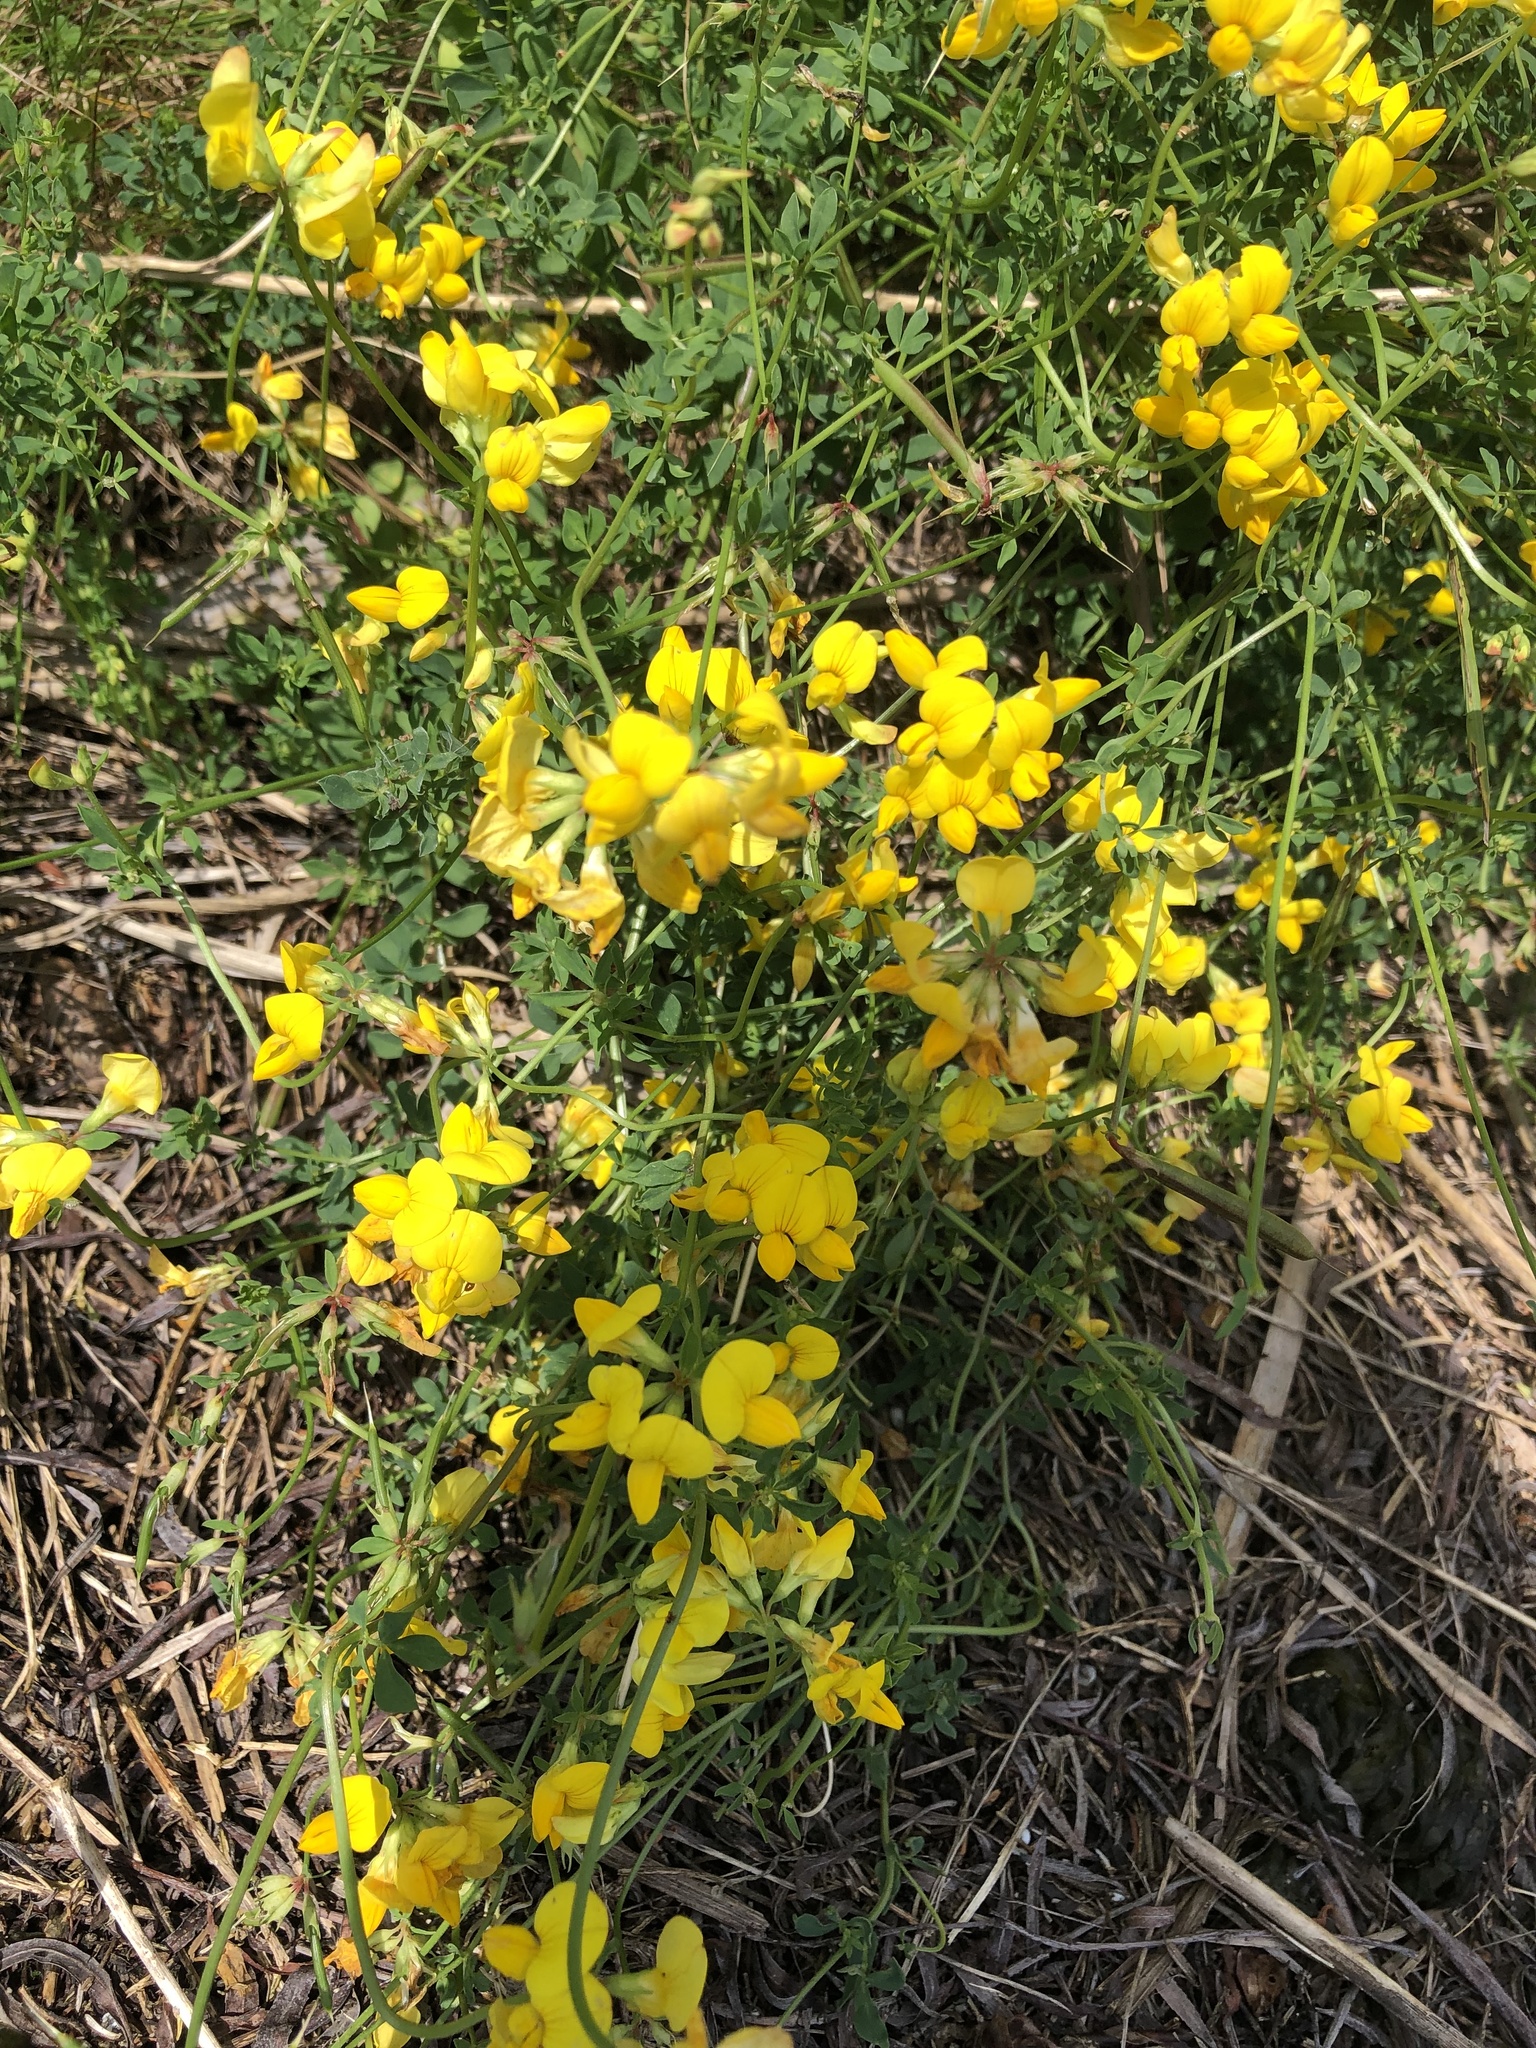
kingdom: Plantae
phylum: Tracheophyta
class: Magnoliopsida
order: Fabales
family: Fabaceae
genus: Lotus
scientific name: Lotus corniculatus
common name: Common bird's-foot-trefoil
